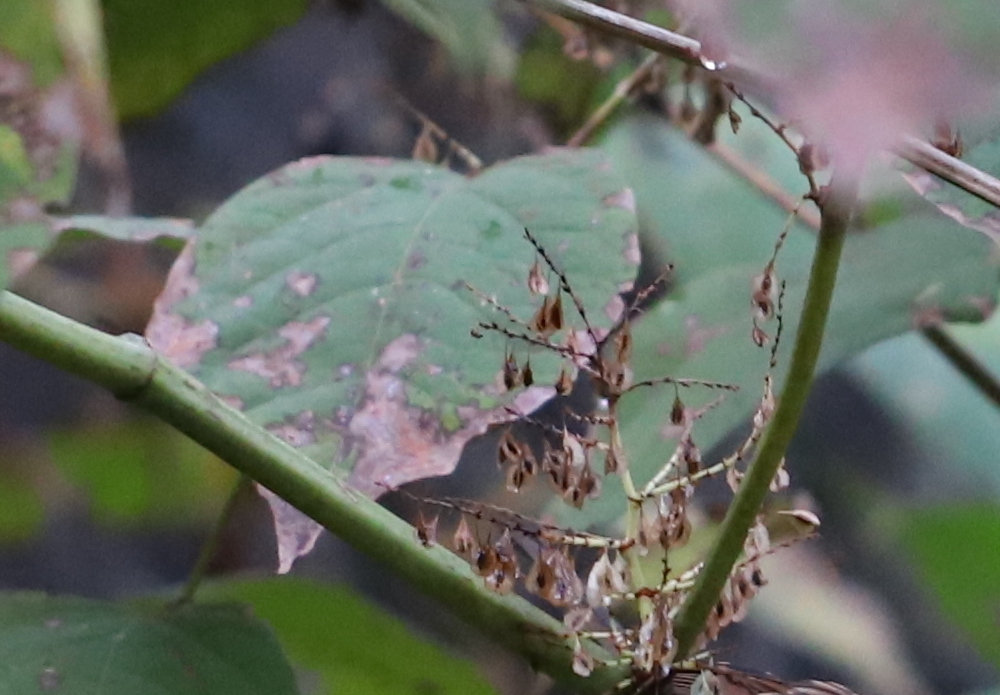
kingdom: Plantae
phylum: Tracheophyta
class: Magnoliopsida
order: Caryophyllales
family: Polygonaceae
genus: Reynoutria
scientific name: Reynoutria japonica
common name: Japanese knotweed
